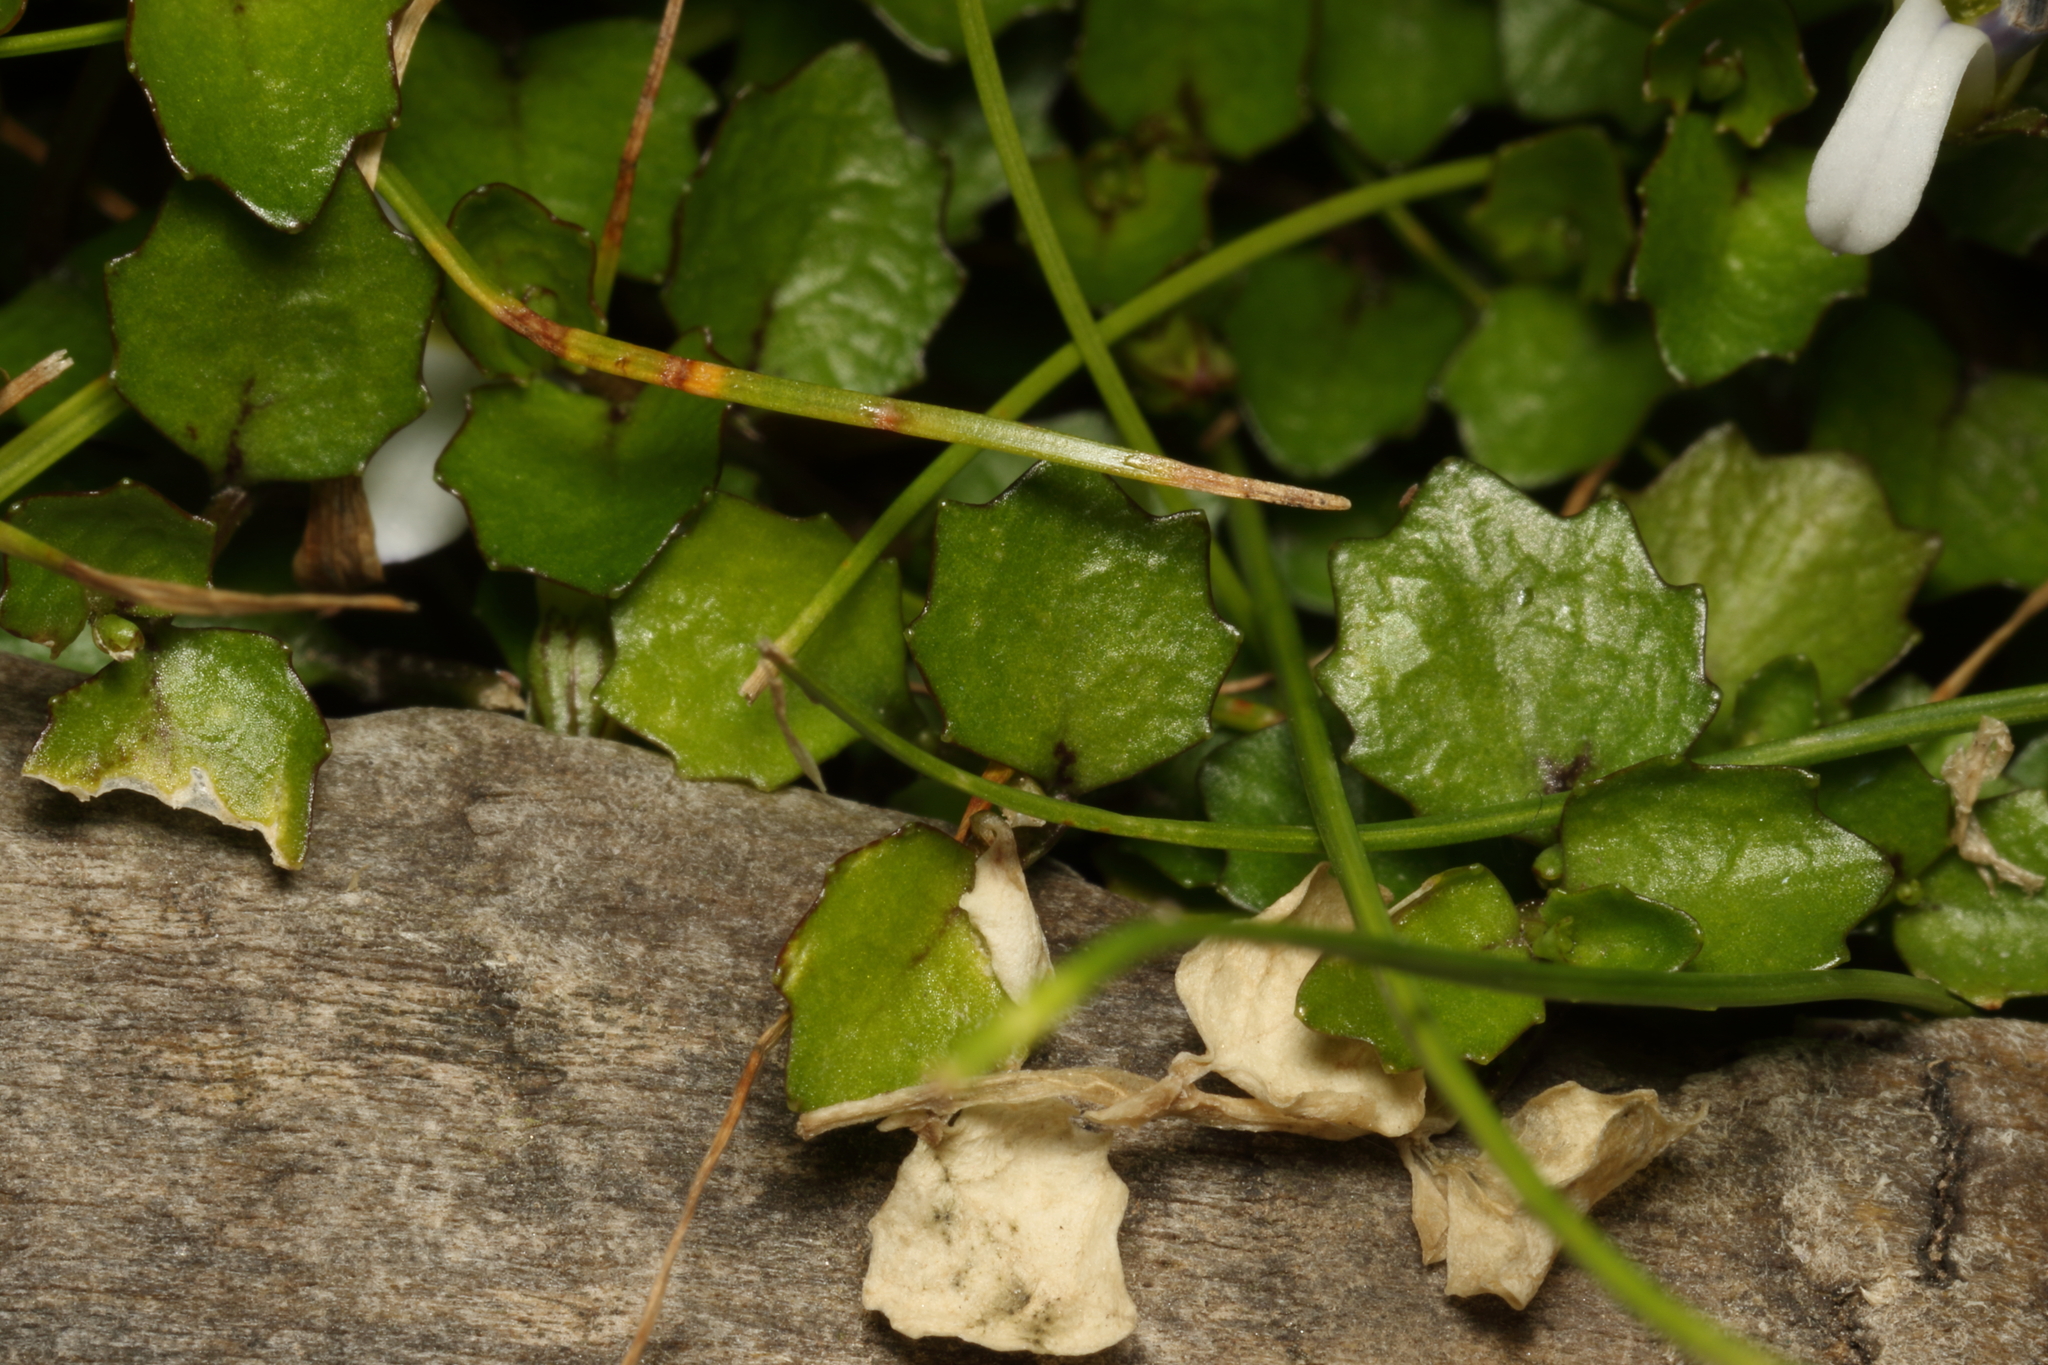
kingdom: Plantae
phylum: Tracheophyta
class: Magnoliopsida
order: Asterales
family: Campanulaceae
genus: Lobelia
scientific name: Lobelia angulata
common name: Lawn lobelia
